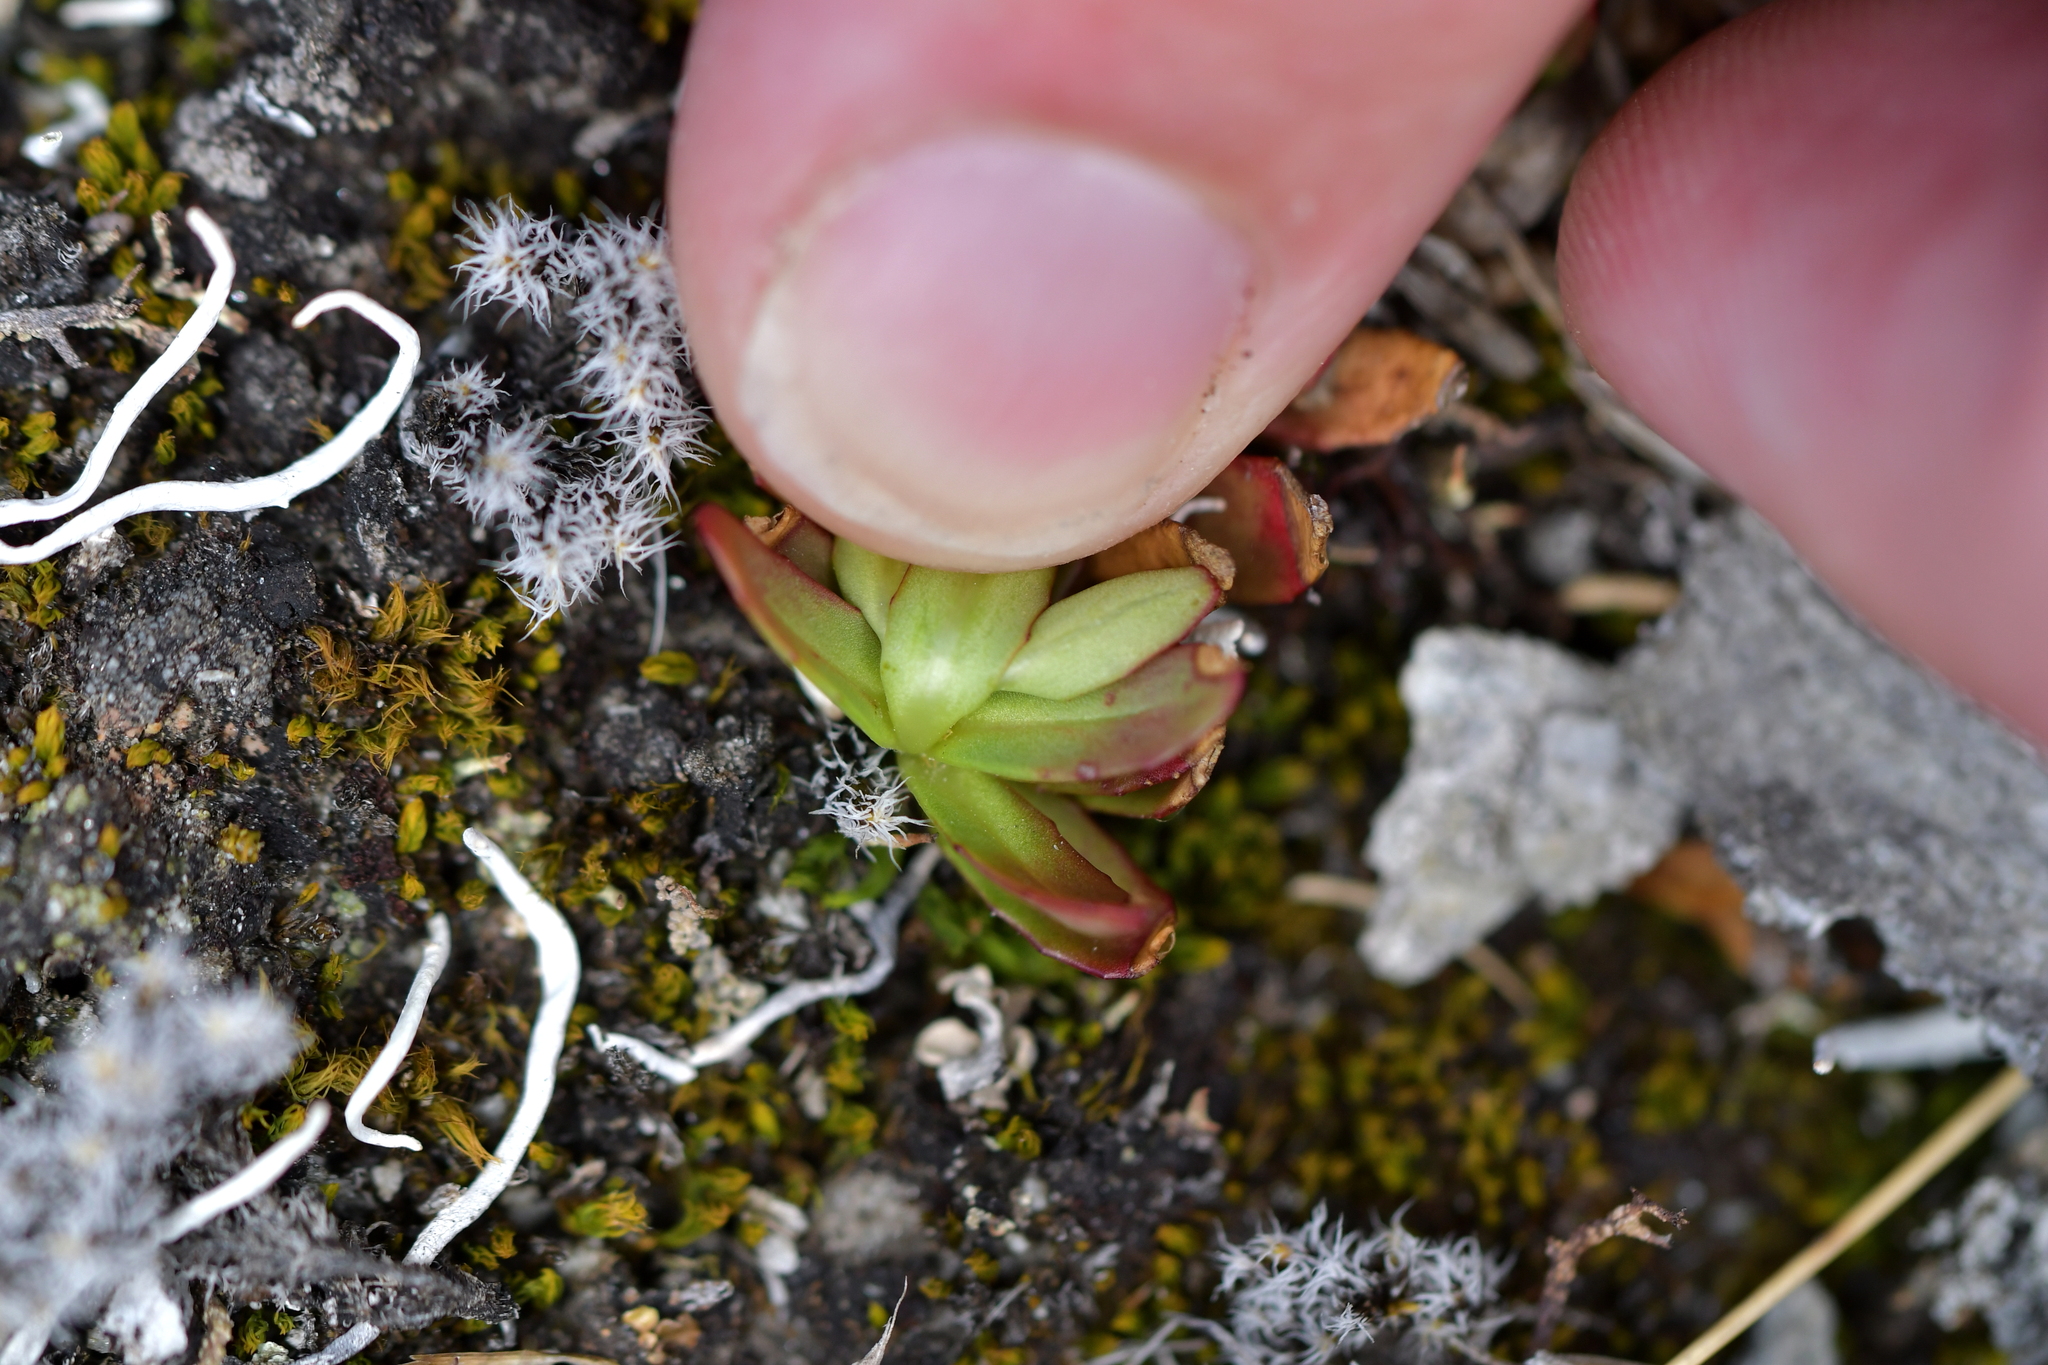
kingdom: Plantae
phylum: Tracheophyta
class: Magnoliopsida
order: Myrtales
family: Onagraceae
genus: Epilobium
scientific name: Epilobium tasmanicum
